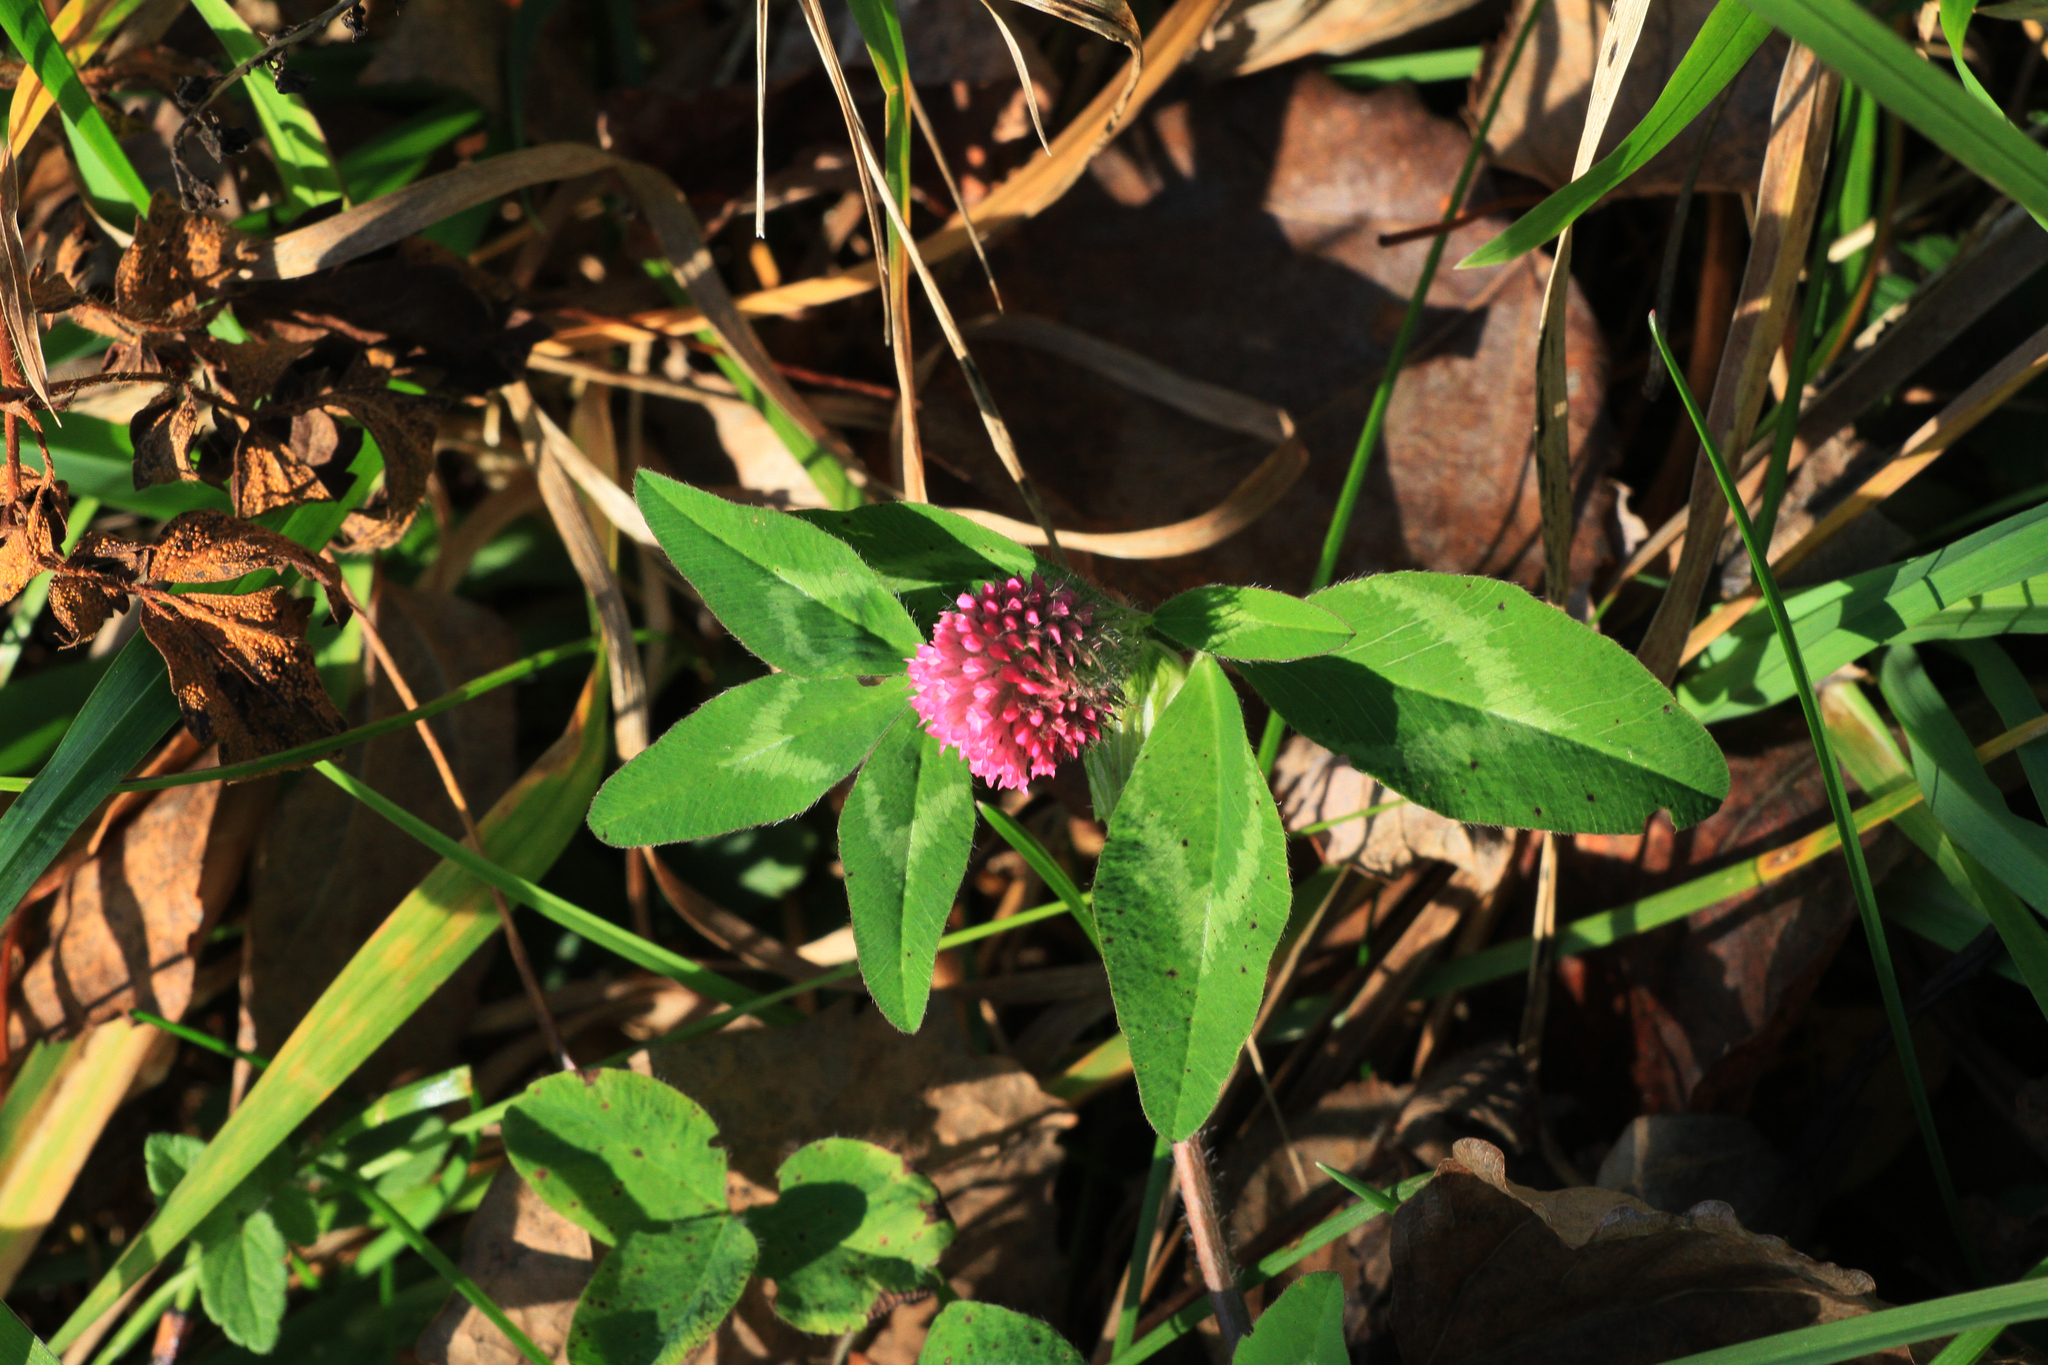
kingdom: Plantae
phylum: Tracheophyta
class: Magnoliopsida
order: Fabales
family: Fabaceae
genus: Trifolium
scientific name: Trifolium pratense
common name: Red clover
